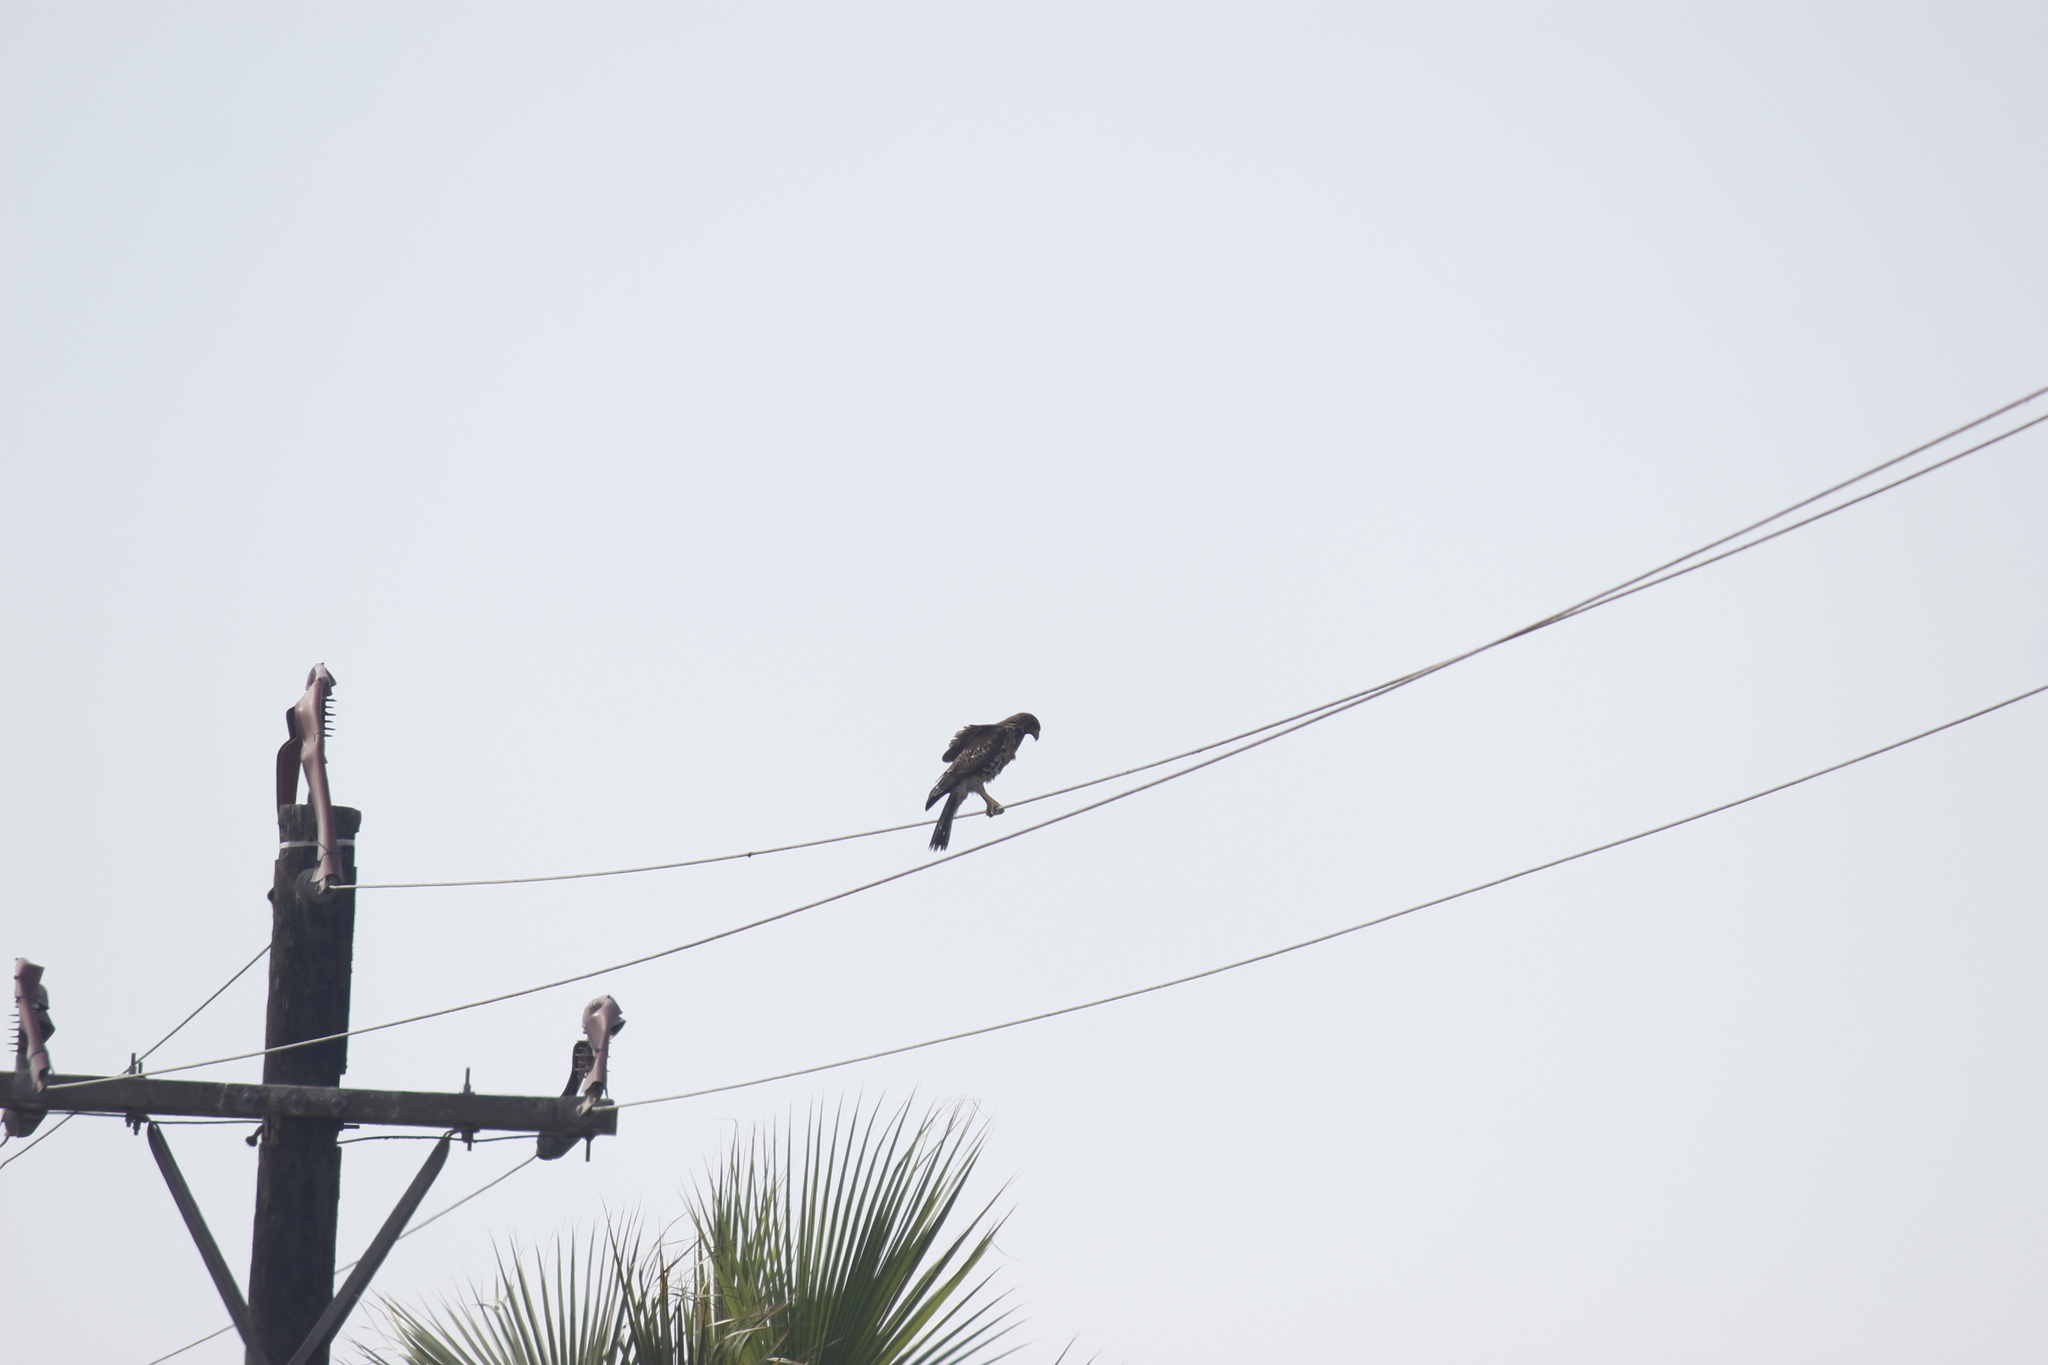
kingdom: Animalia
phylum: Chordata
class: Aves
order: Accipitriformes
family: Accipitridae
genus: Parabuteo
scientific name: Parabuteo unicinctus
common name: Harris's hawk
